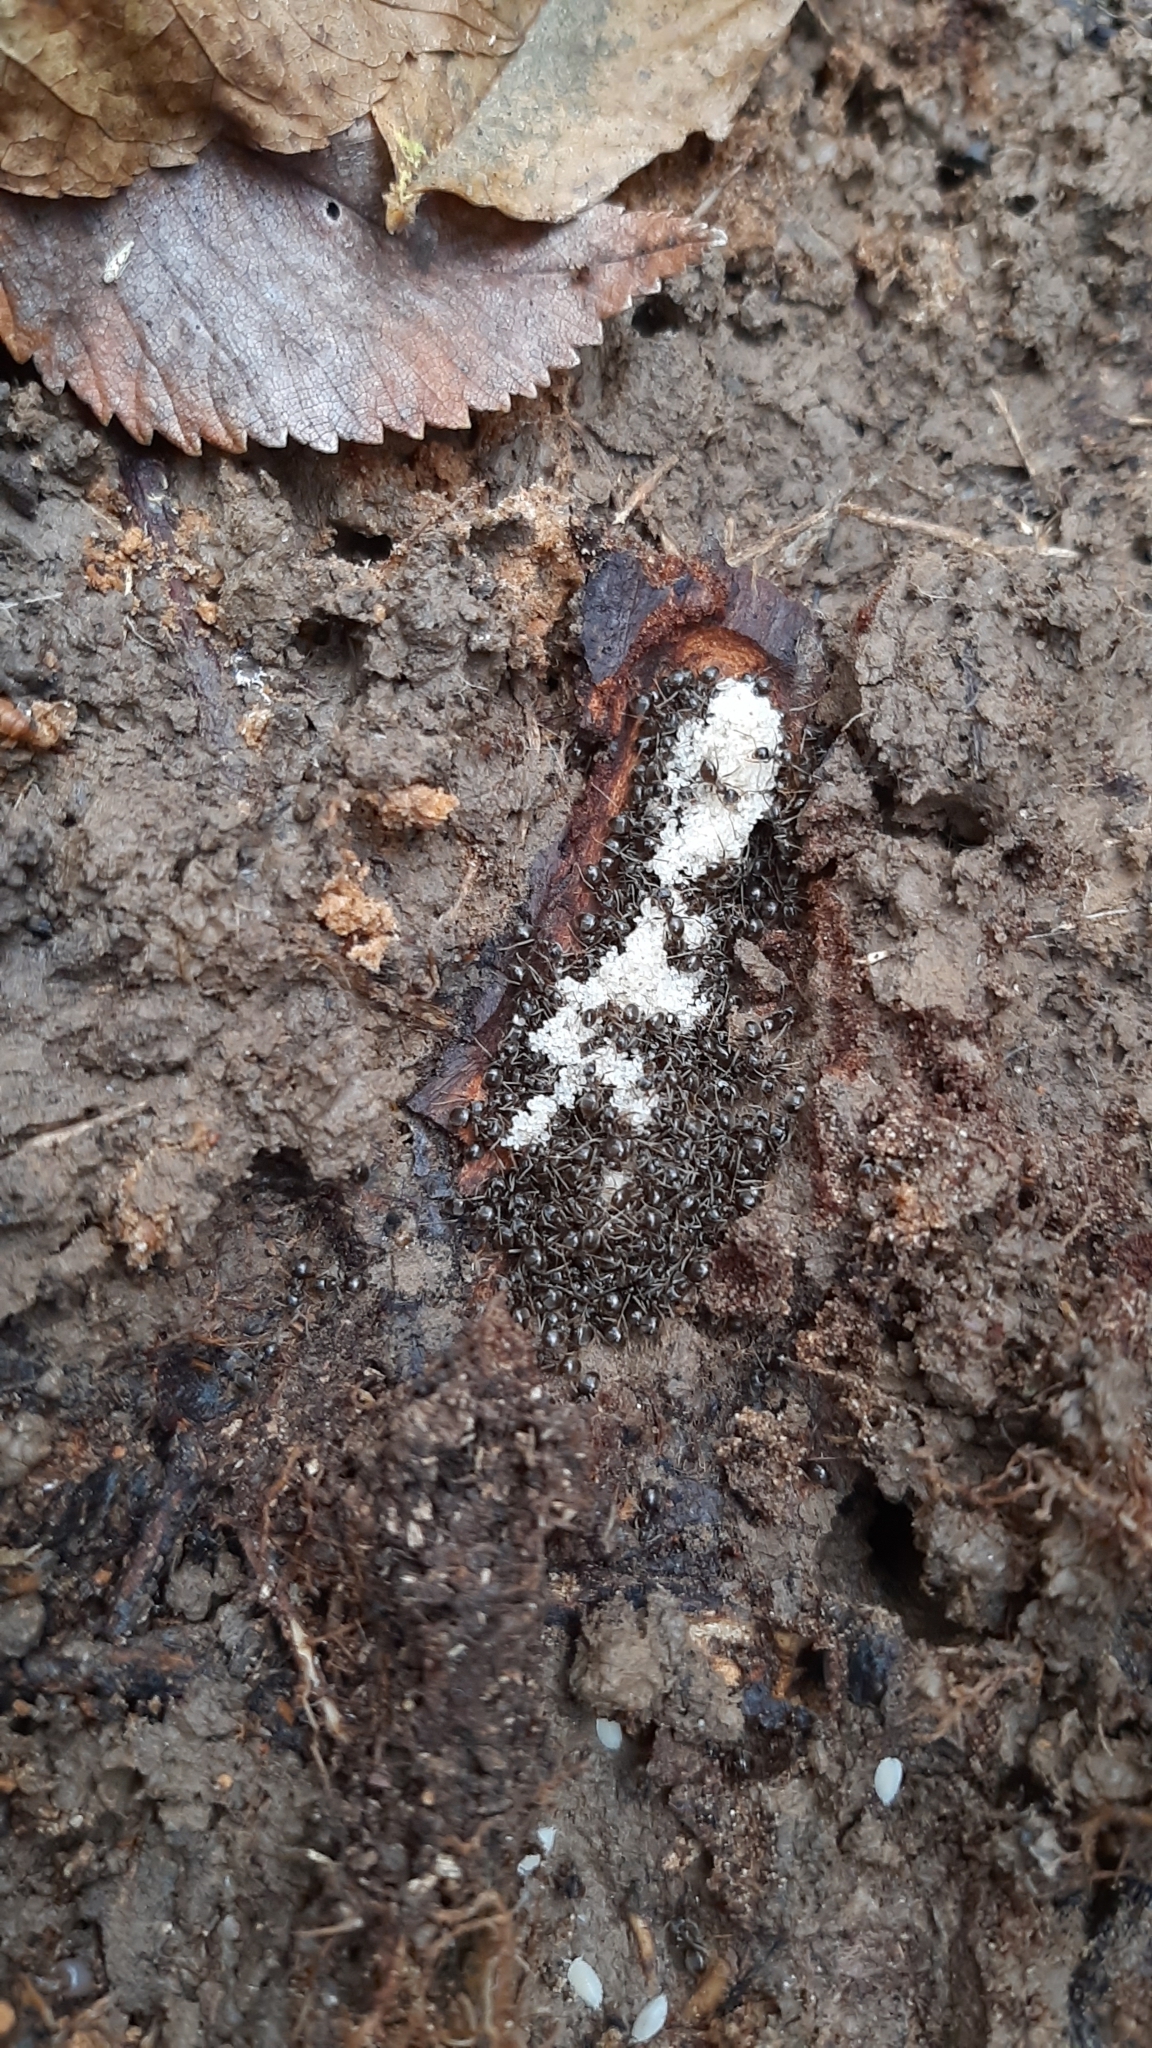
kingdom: Animalia
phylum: Arthropoda
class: Insecta
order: Hymenoptera
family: Formicidae
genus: Lasius
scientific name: Lasius
